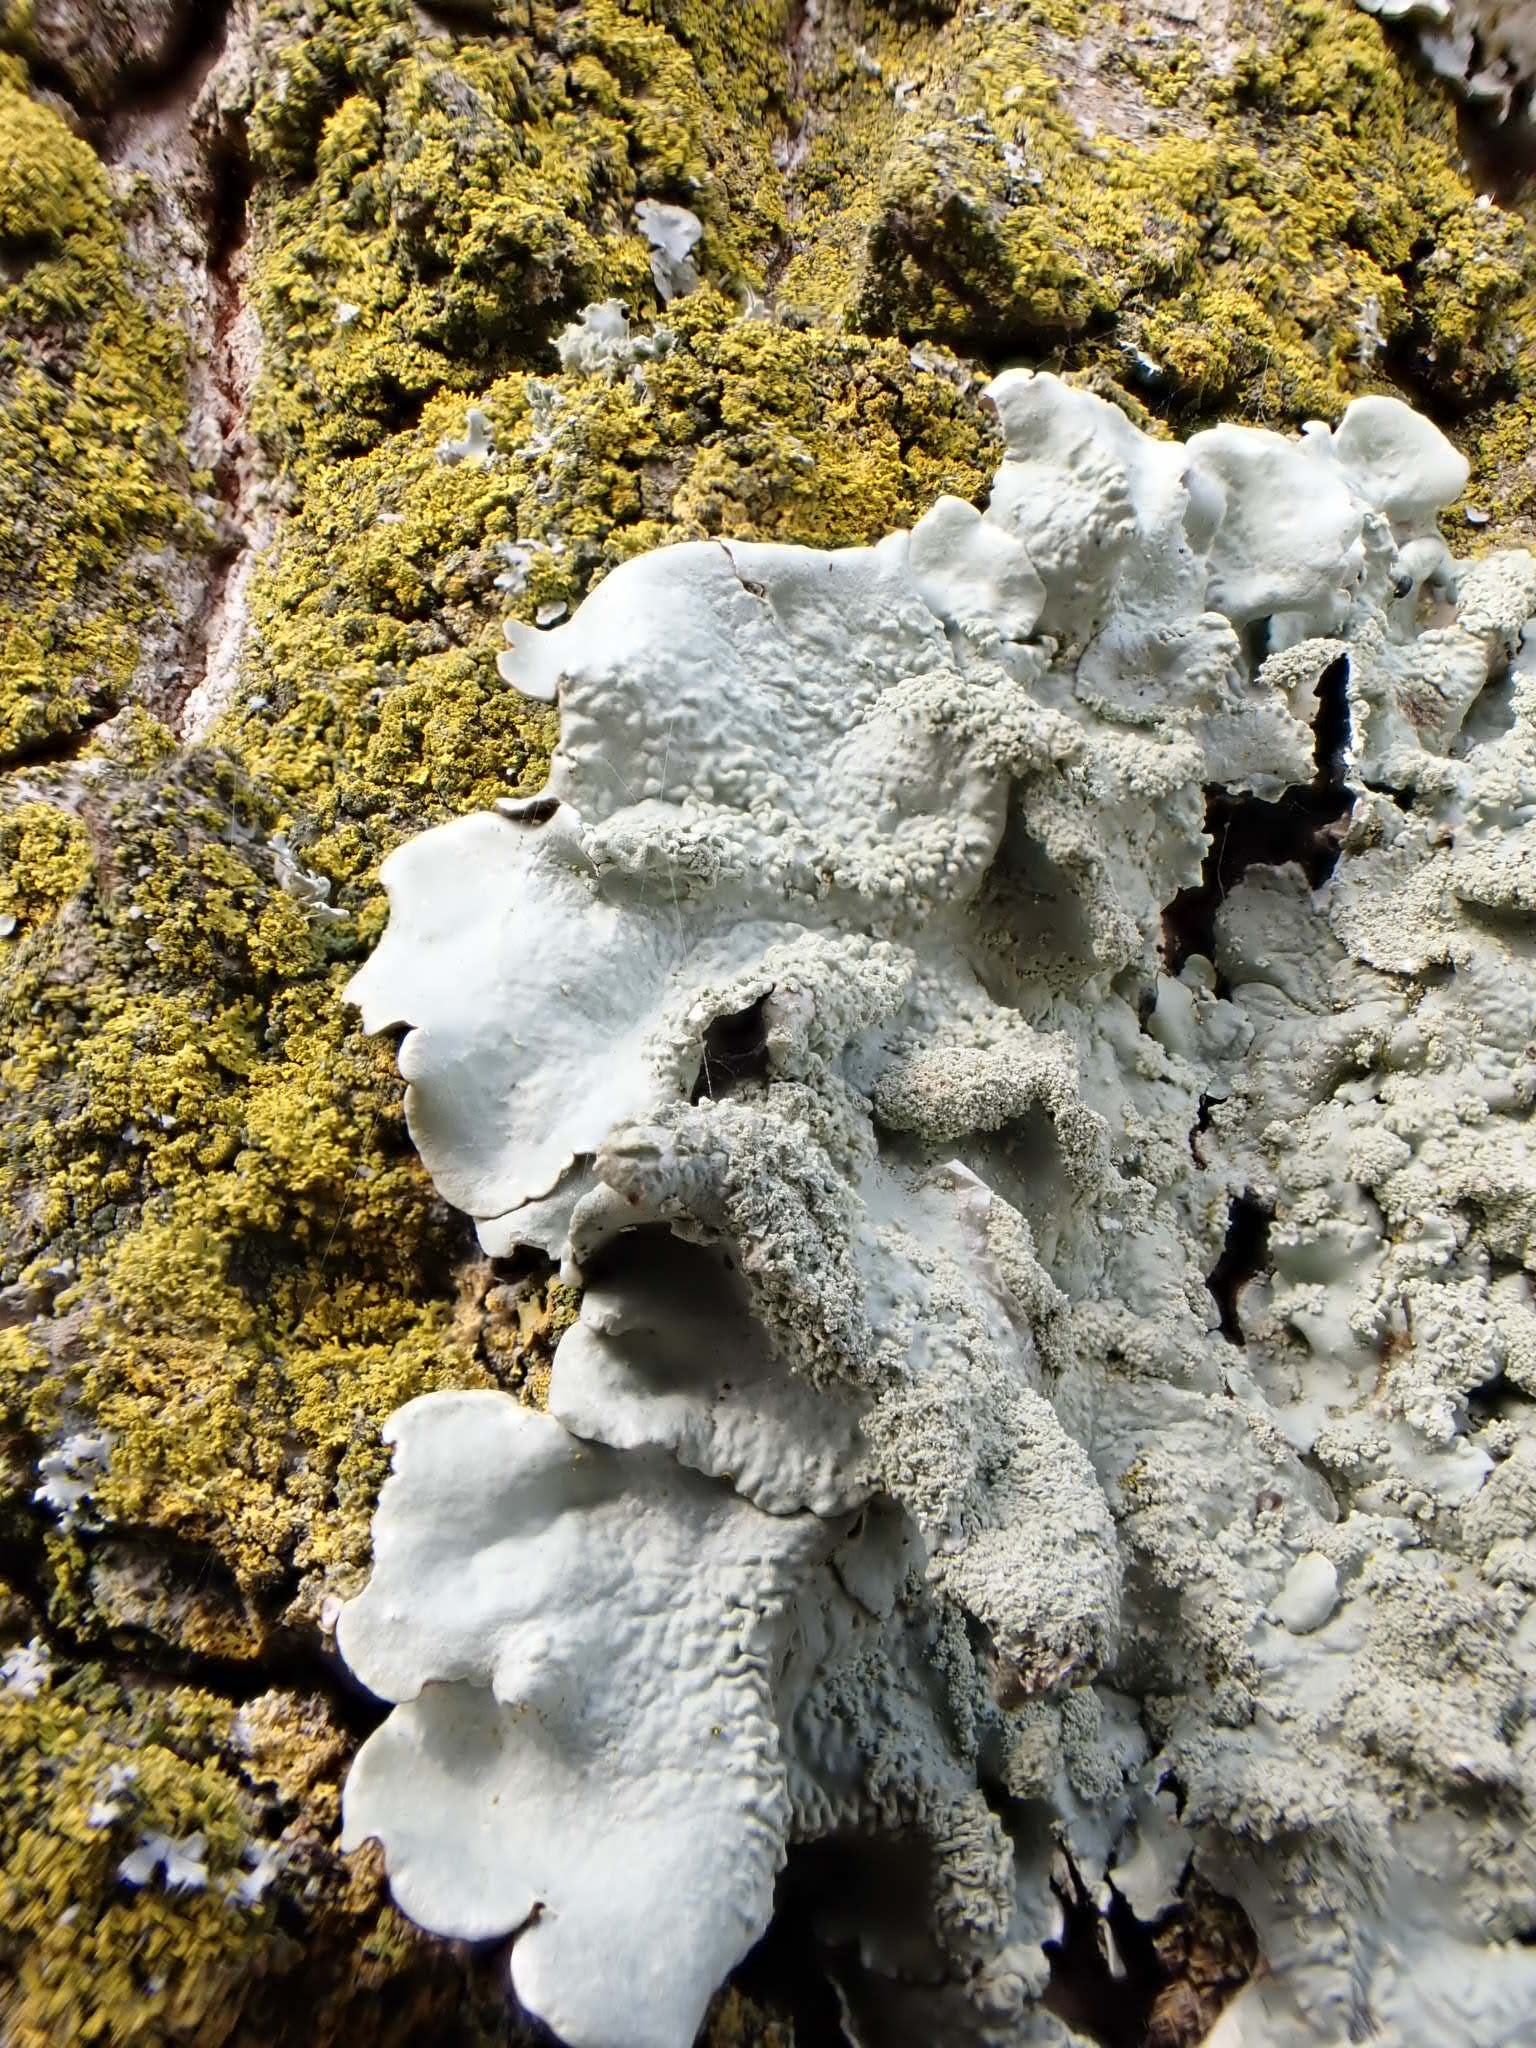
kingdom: Fungi
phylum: Ascomycota
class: Lecanoromycetes
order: Lecanorales
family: Parmeliaceae
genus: Flavoparmelia
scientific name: Flavoparmelia caperata
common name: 40-mile per hour lichen
